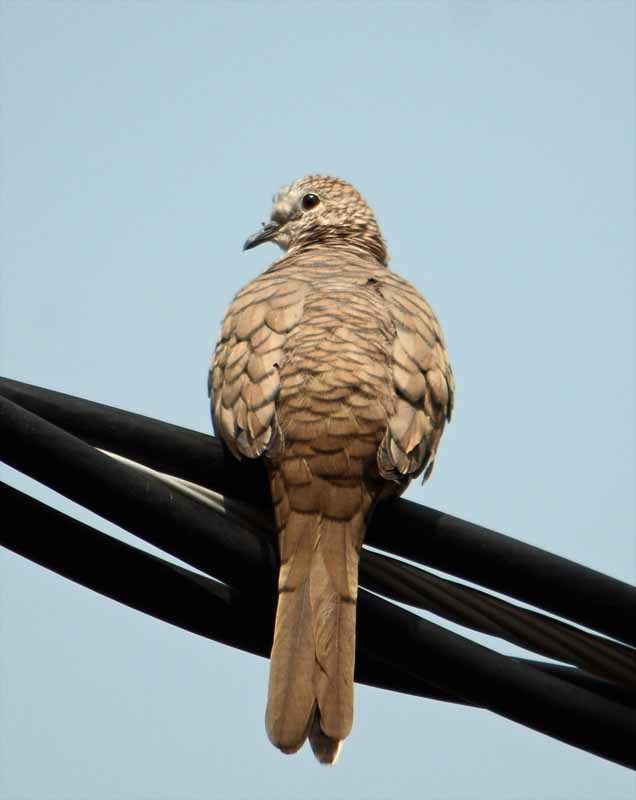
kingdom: Animalia
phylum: Chordata
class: Aves
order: Columbiformes
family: Columbidae
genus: Columbina
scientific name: Columbina inca
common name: Inca dove
